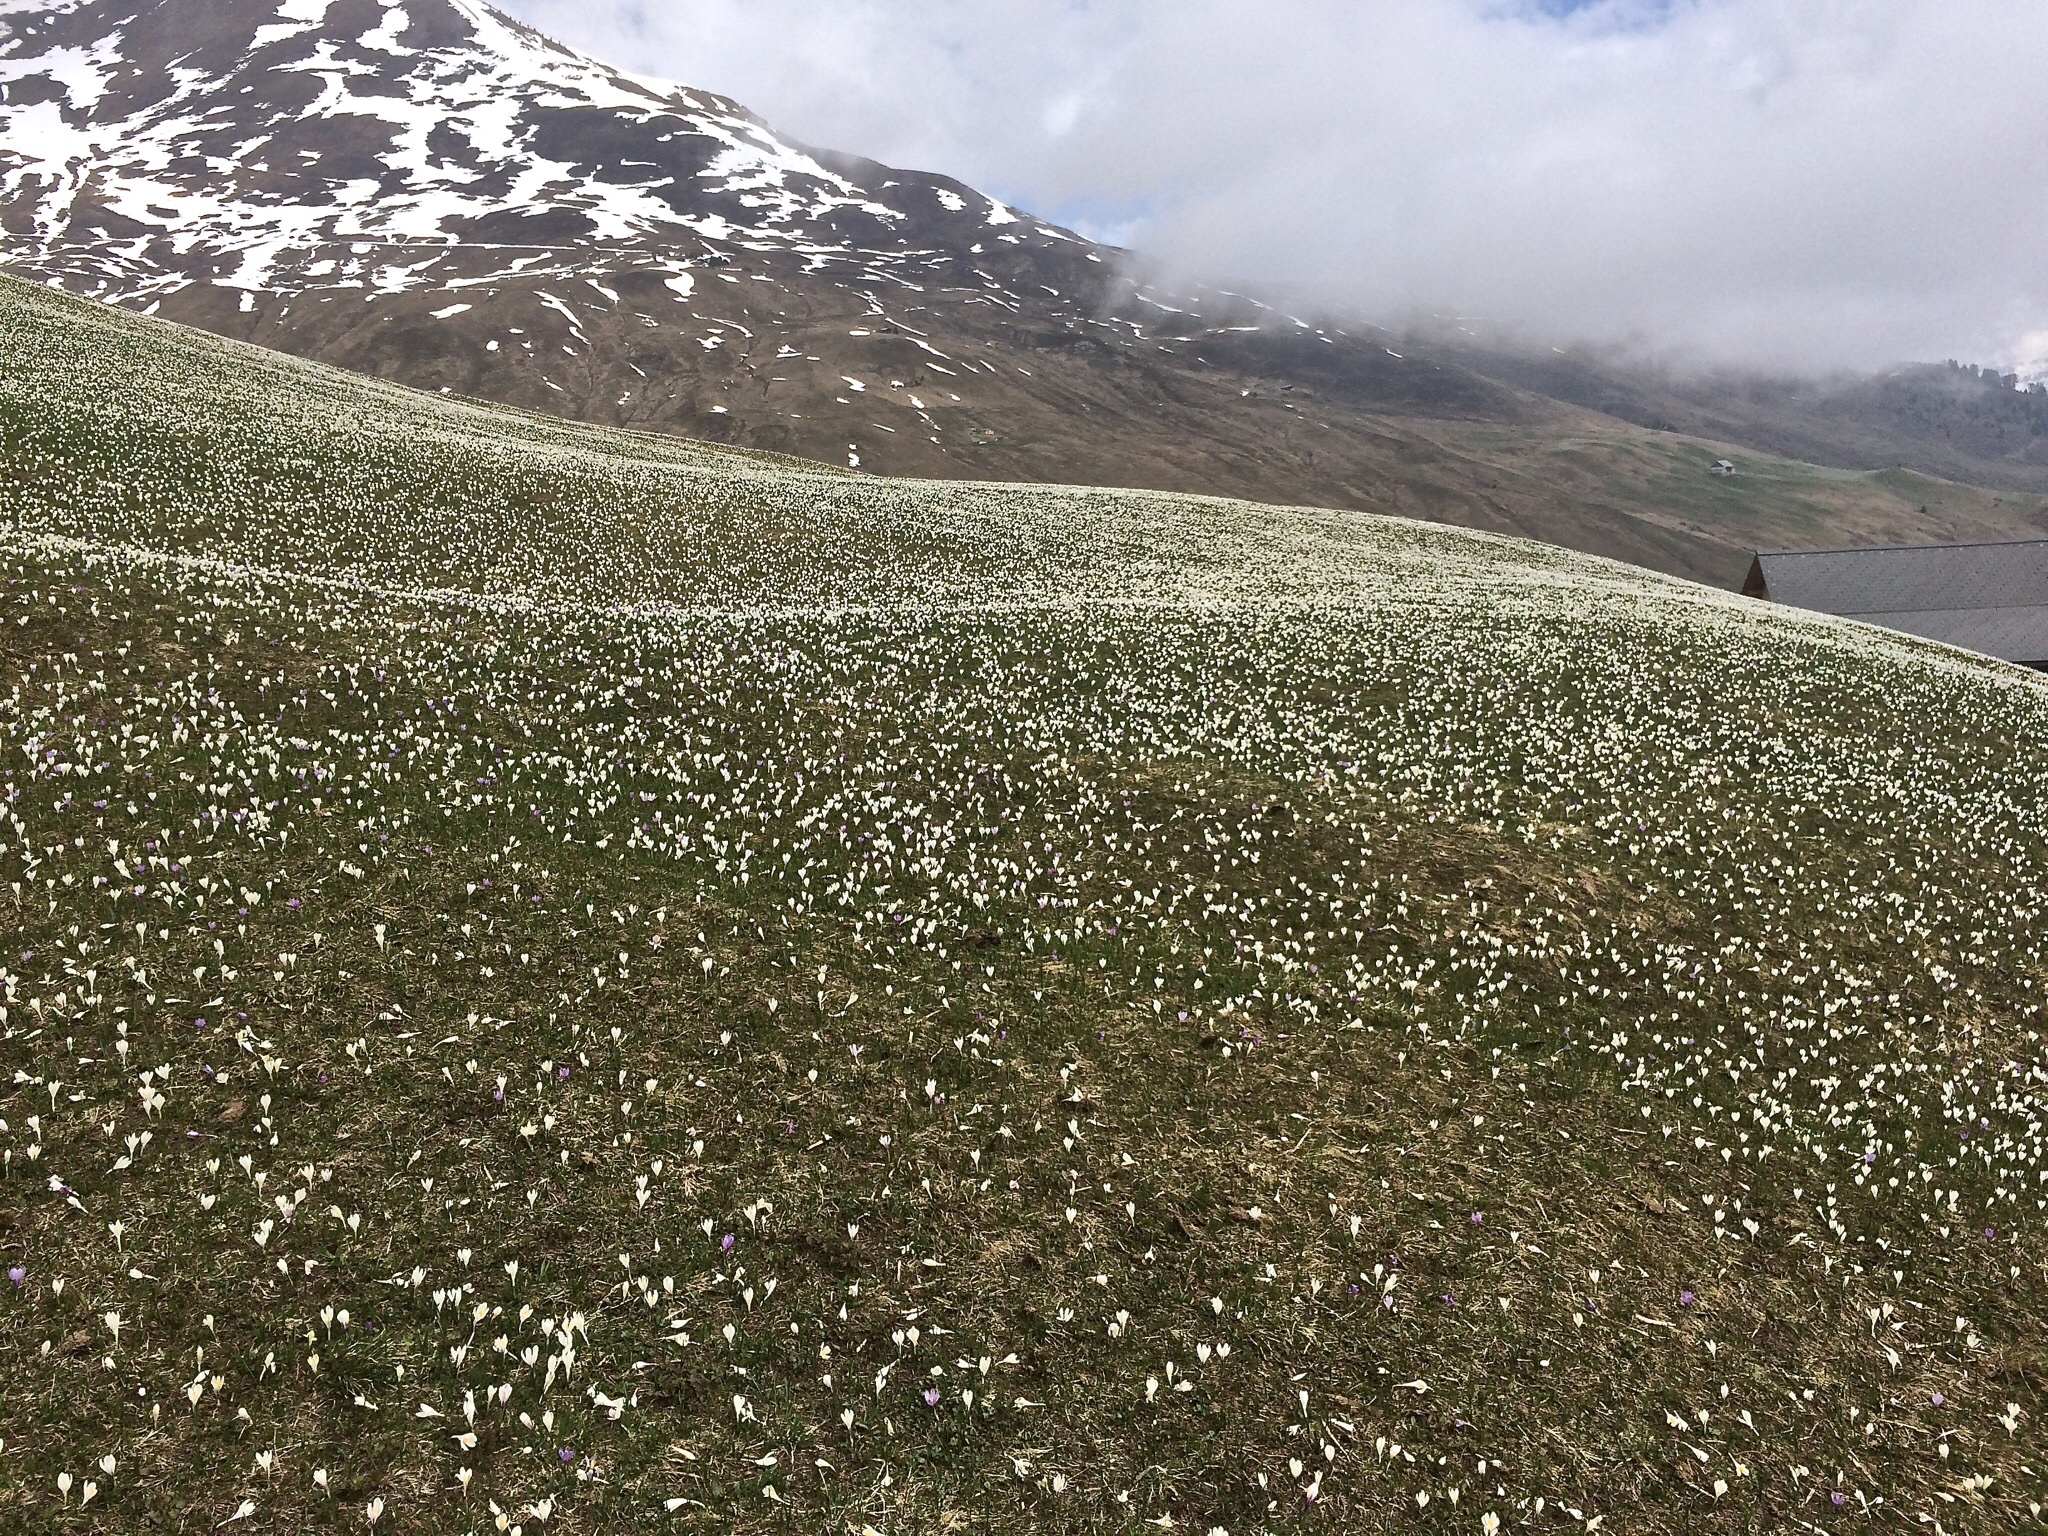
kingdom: Plantae
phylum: Tracheophyta
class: Liliopsida
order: Asparagales
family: Iridaceae
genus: Crocus
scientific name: Crocus vernus
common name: Spring crocus
